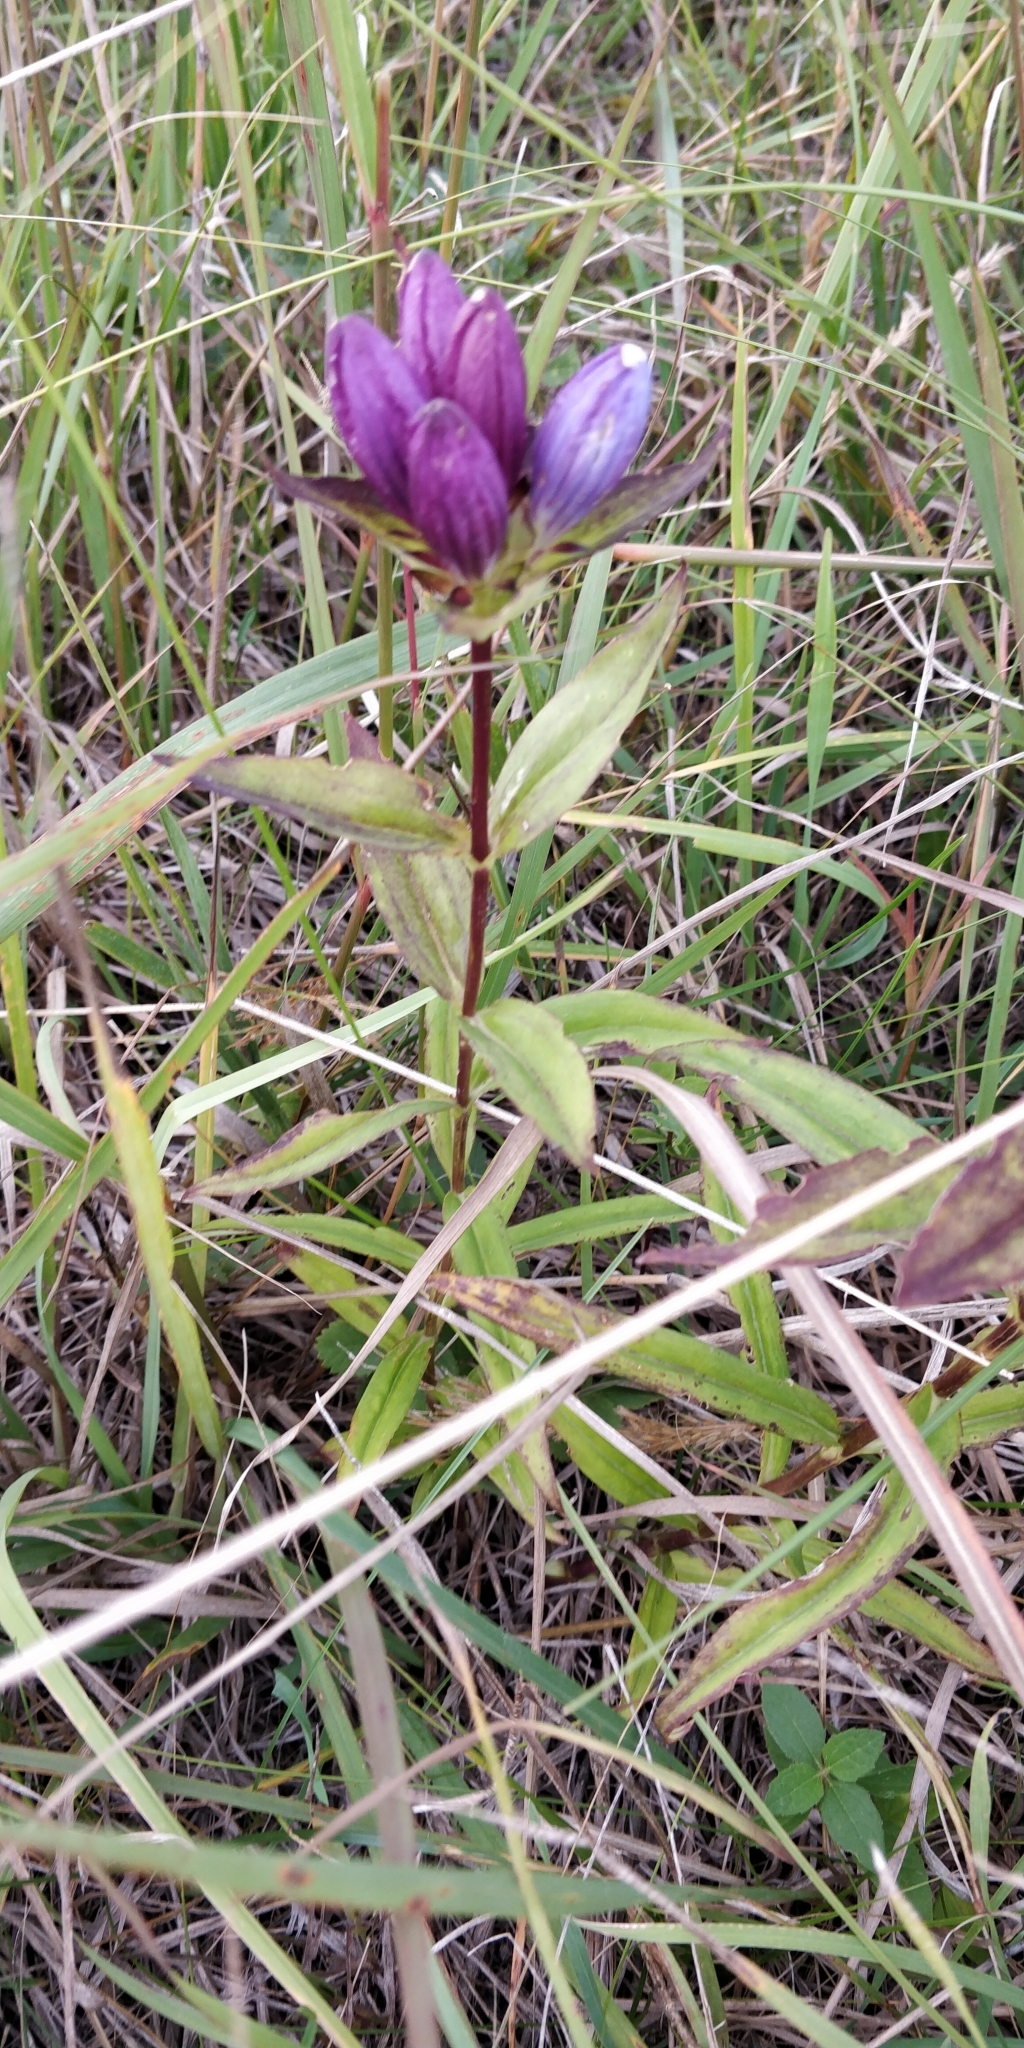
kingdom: Plantae
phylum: Tracheophyta
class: Magnoliopsida
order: Gentianales
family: Gentianaceae
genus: Gentiana
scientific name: Gentiana andrewsii
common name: Bottle gentian
